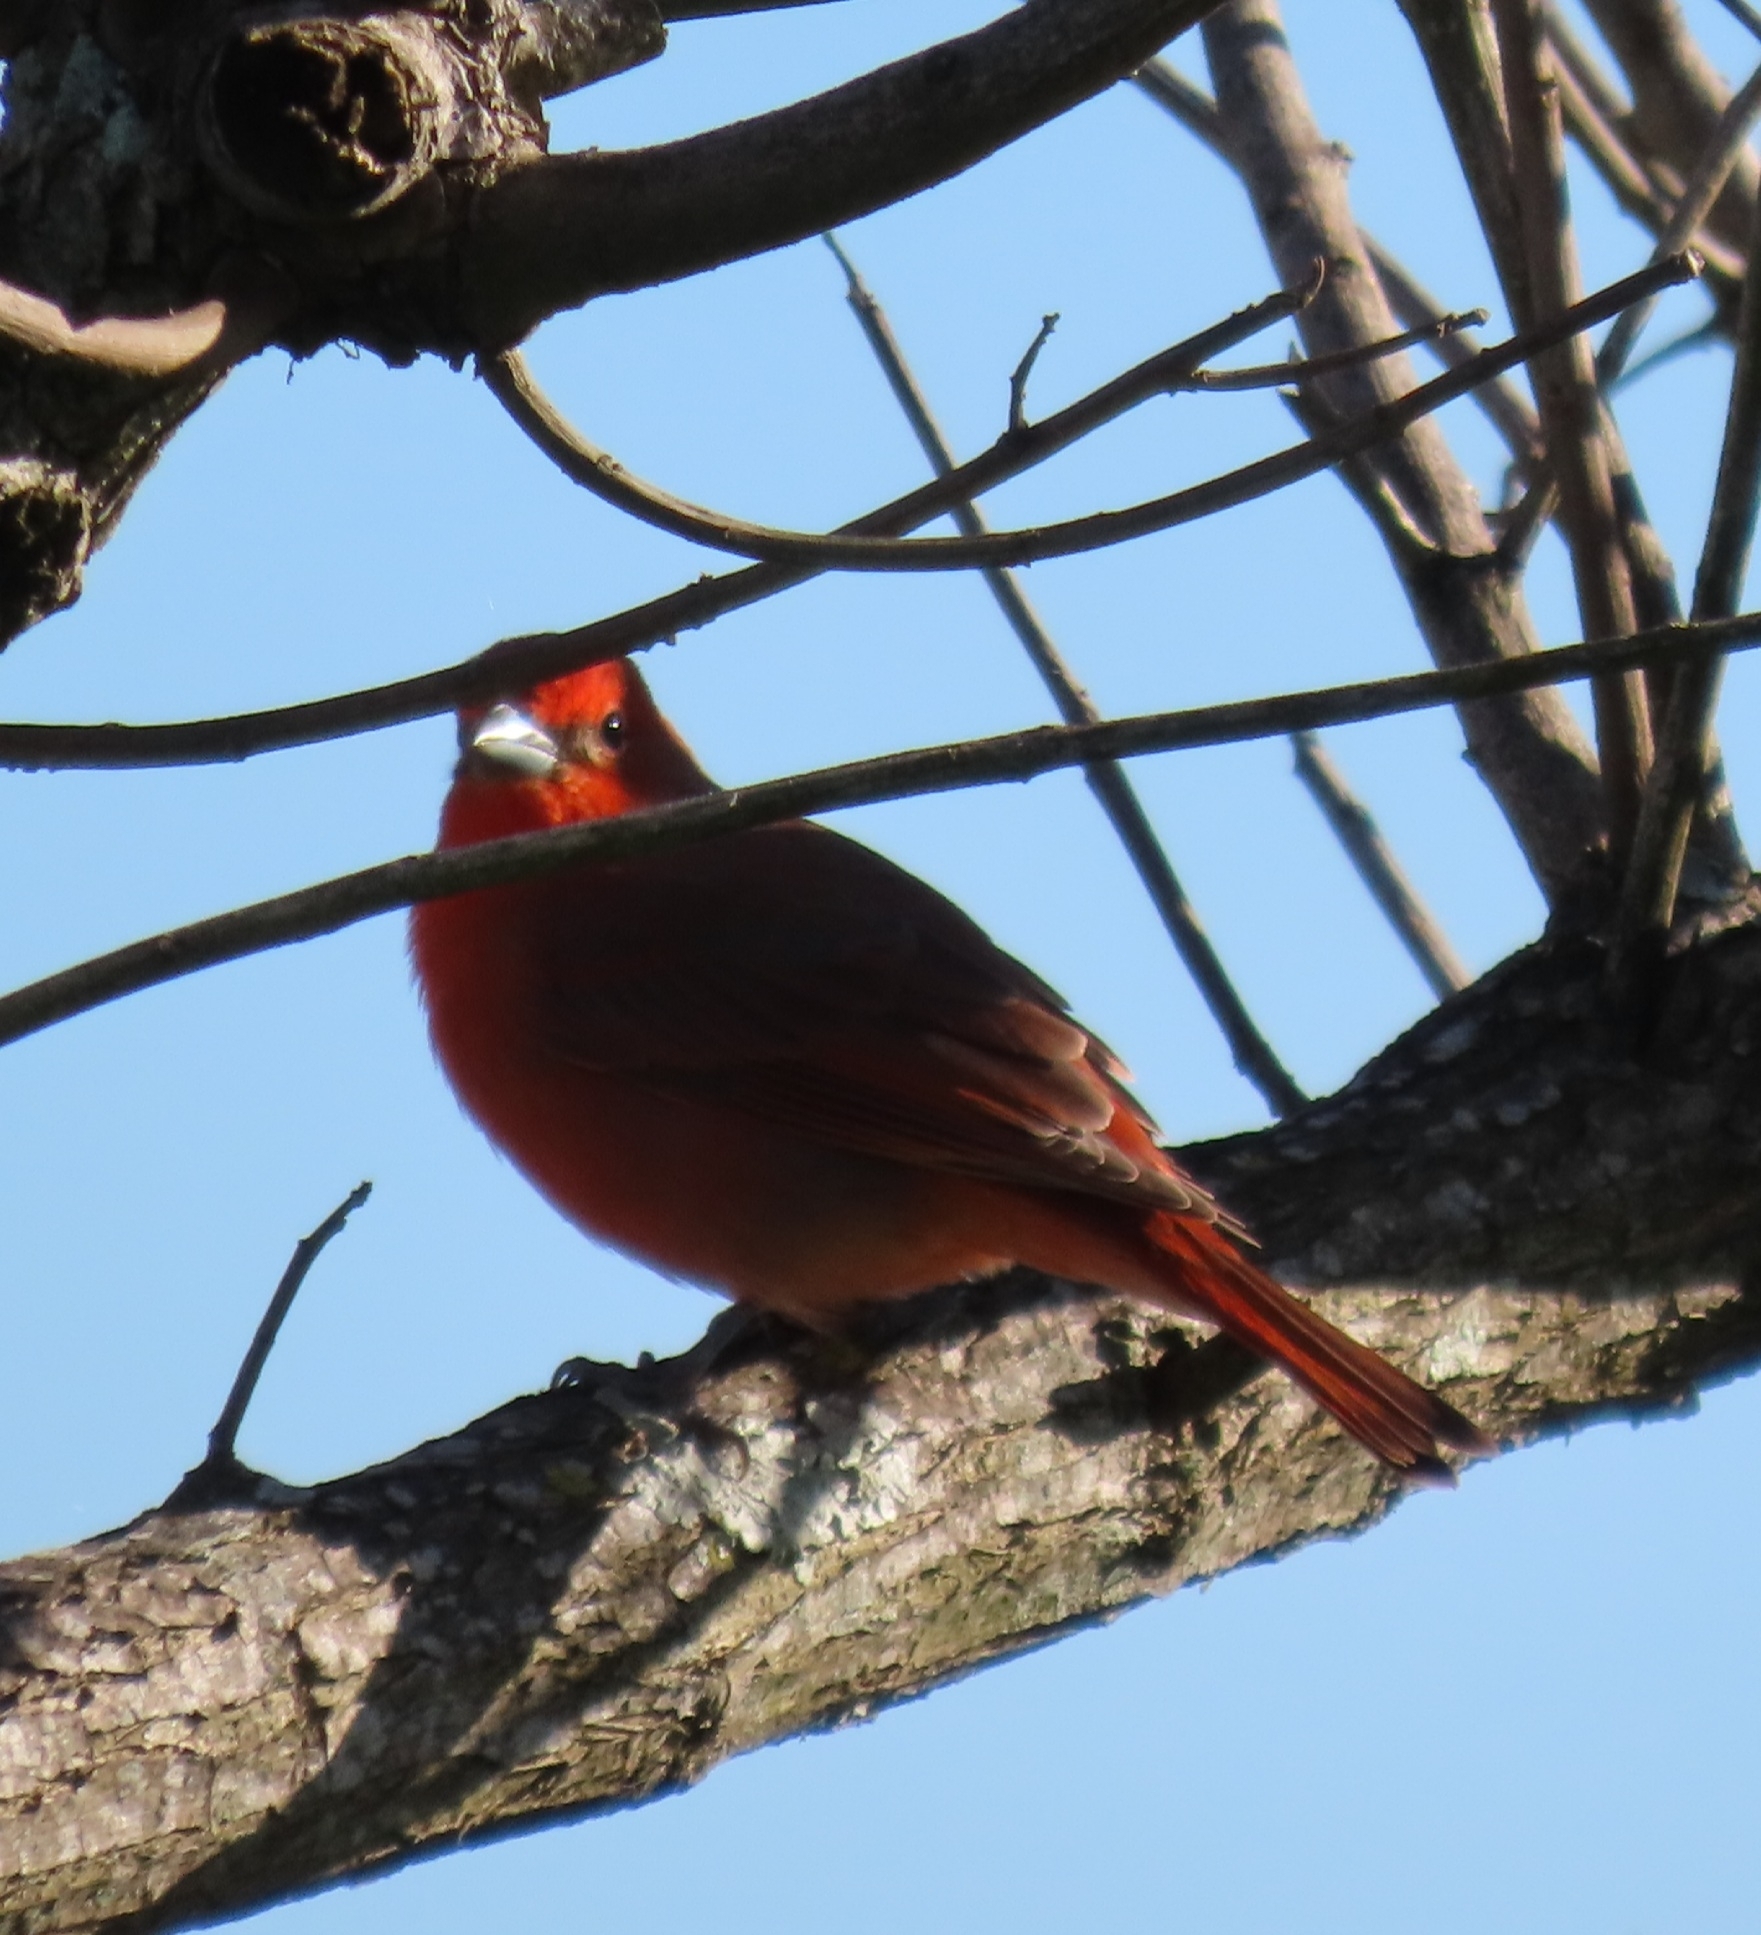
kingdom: Animalia
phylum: Chordata
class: Aves
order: Passeriformes
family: Cardinalidae
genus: Piranga
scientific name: Piranga flava
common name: Red tanager
